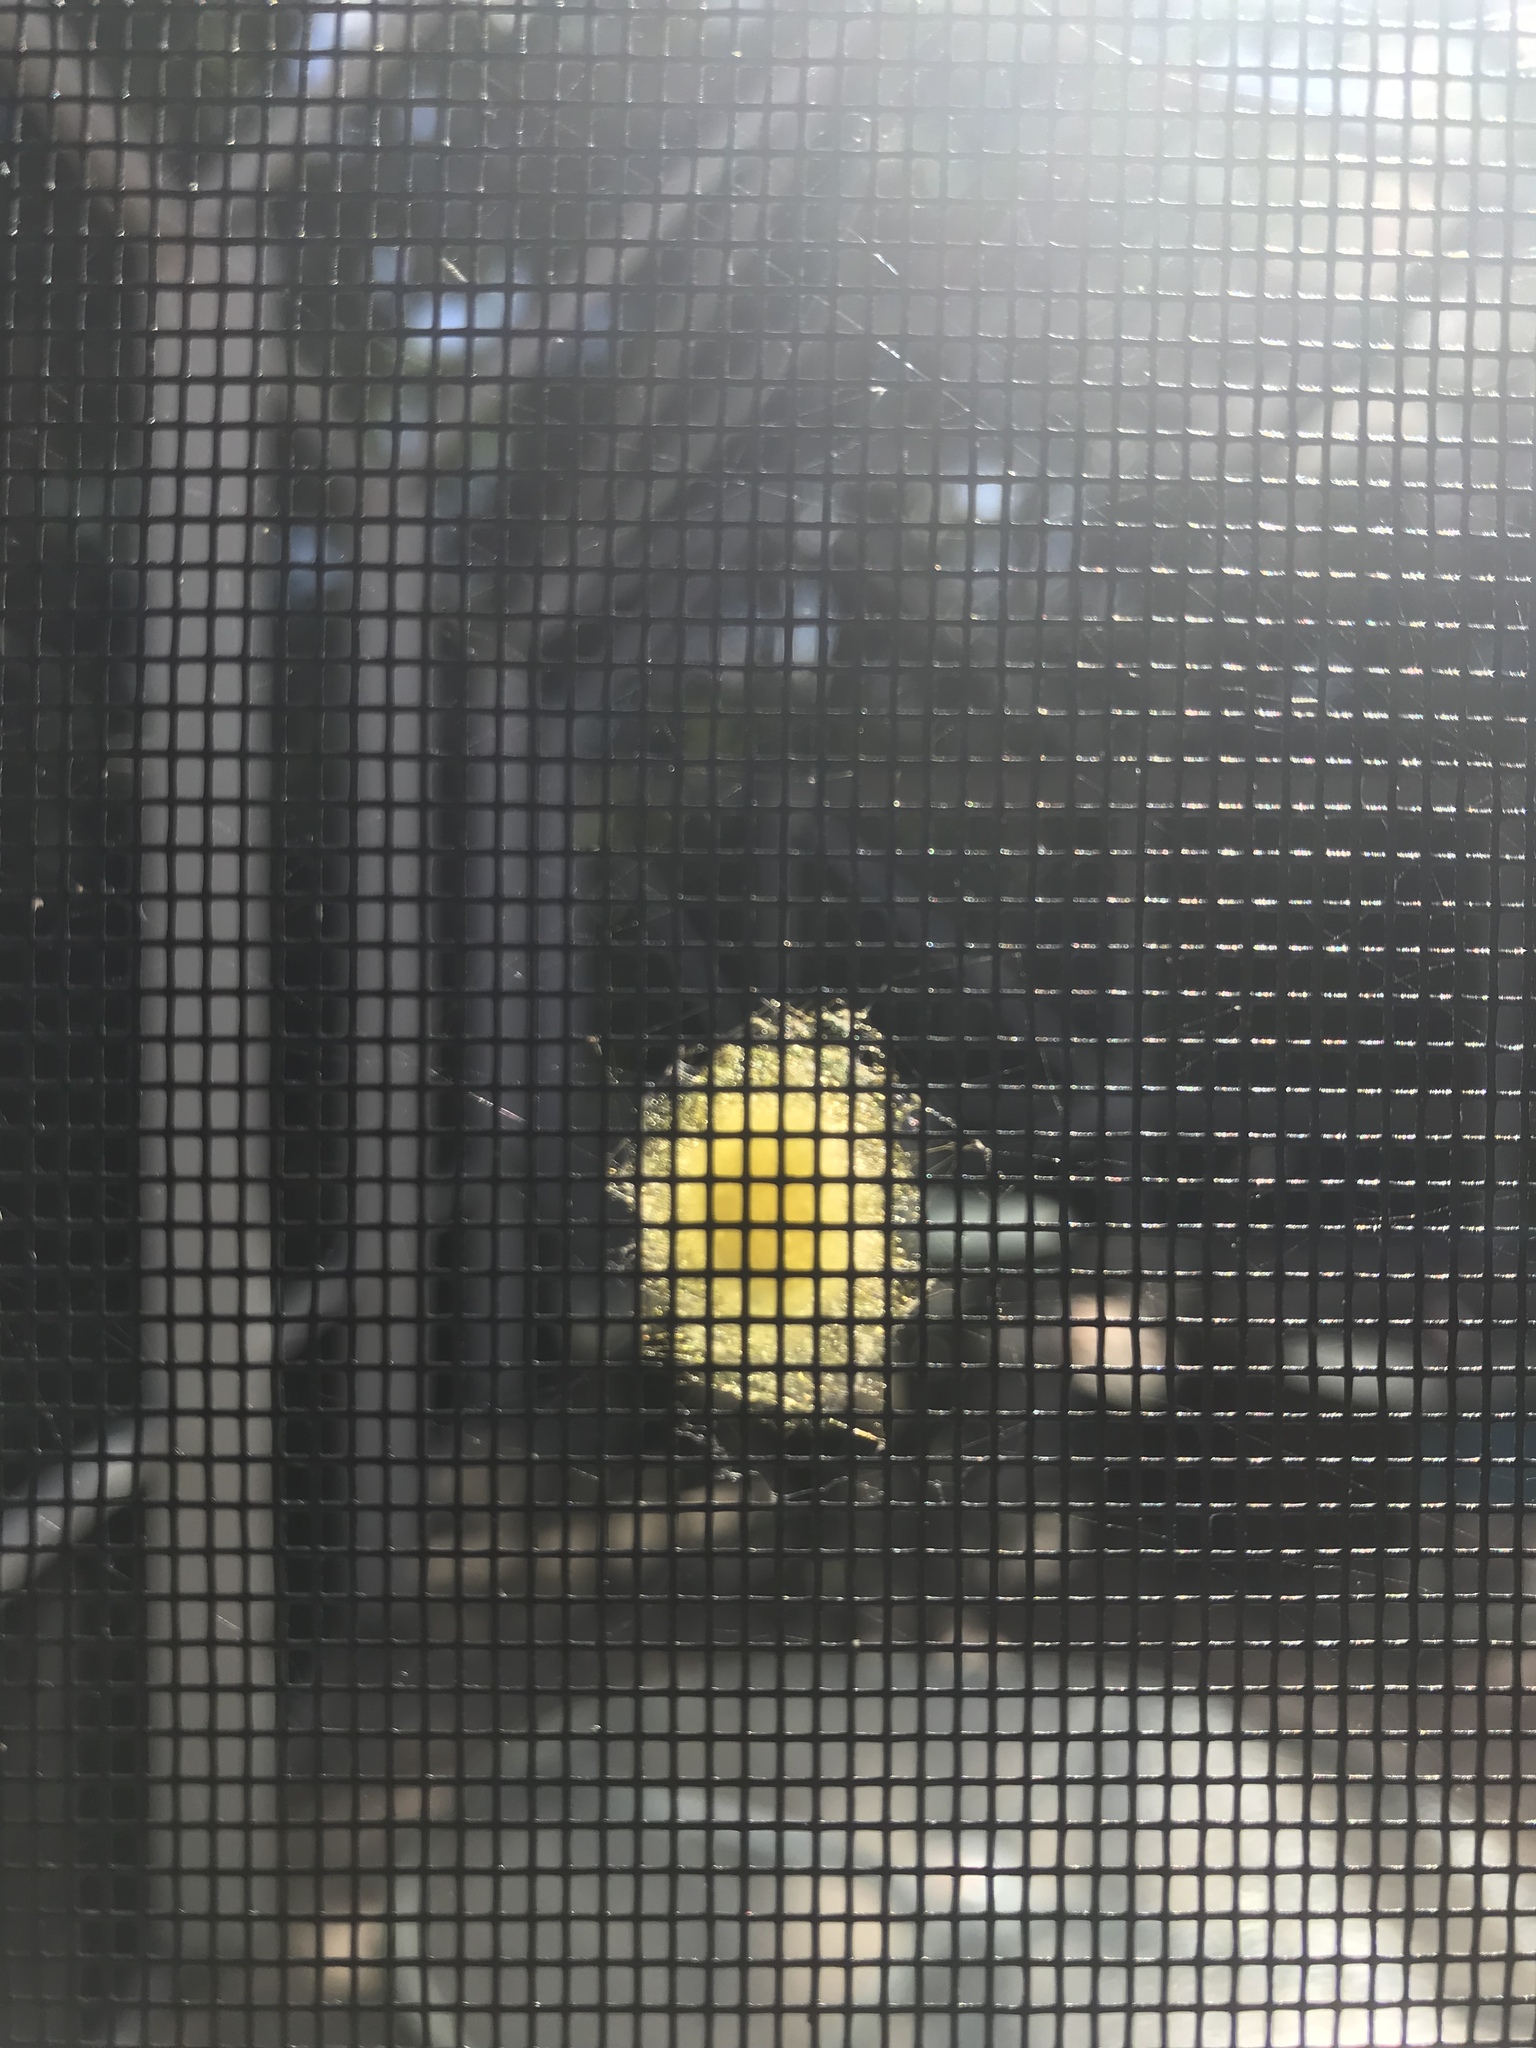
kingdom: Animalia
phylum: Arthropoda
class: Arachnida
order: Araneae
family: Araneidae
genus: Gasteracantha
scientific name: Gasteracantha cancriformis
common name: Orb weavers
